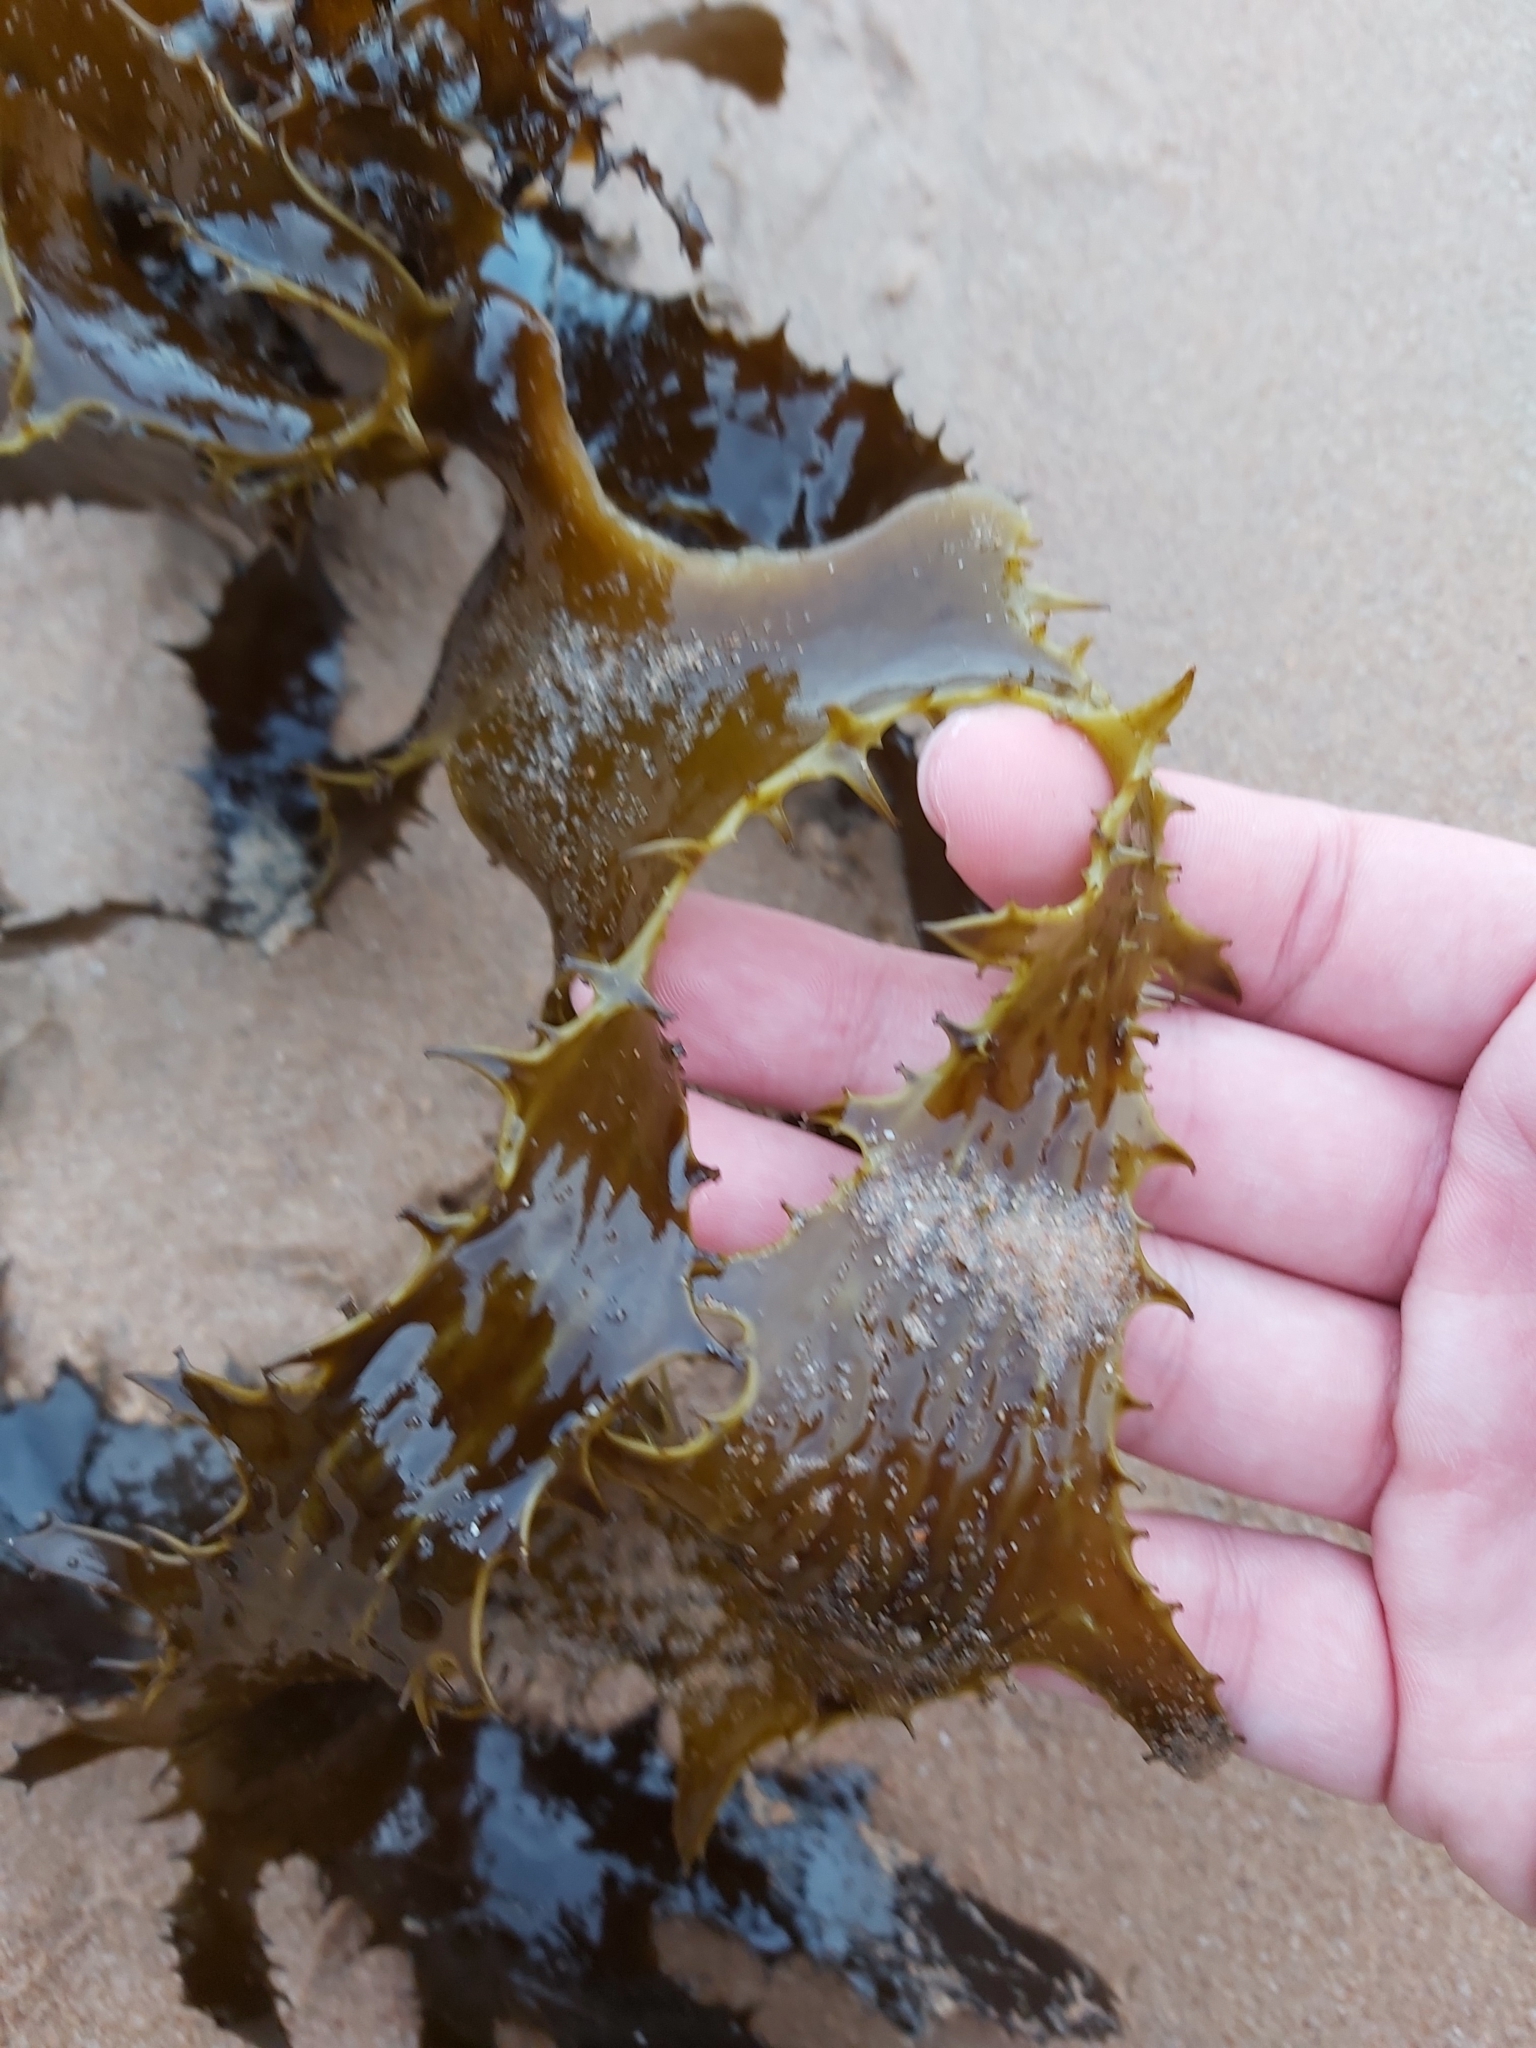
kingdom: Chromista
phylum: Ochrophyta
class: Phaeophyceae
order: Laminariales
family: Lessoniaceae
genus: Ecklonia
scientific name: Ecklonia radiata
